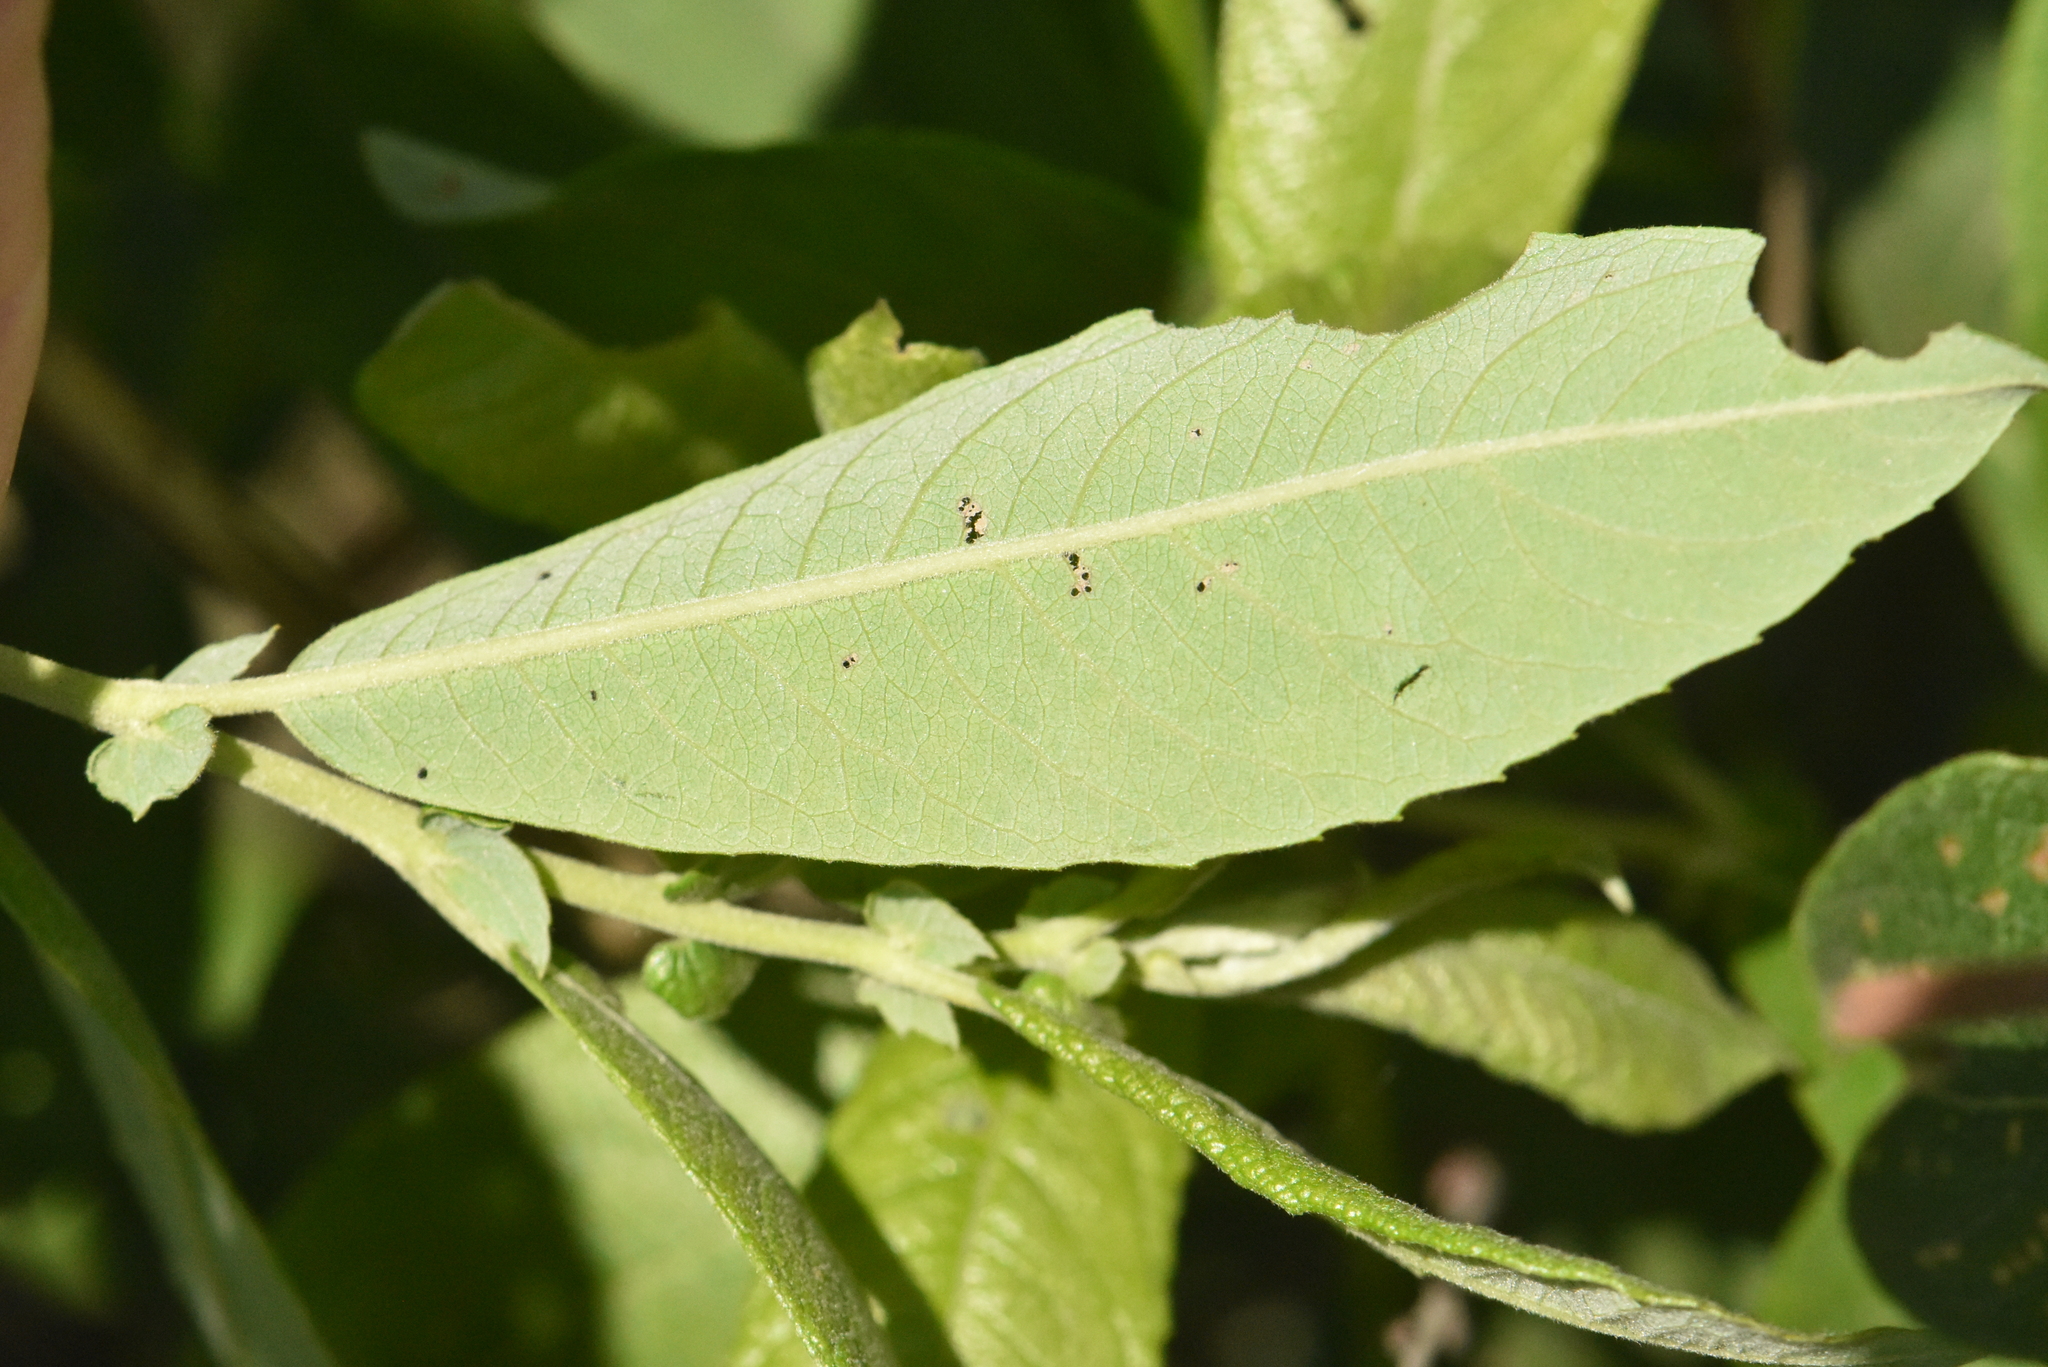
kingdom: Plantae
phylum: Tracheophyta
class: Magnoliopsida
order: Malpighiales
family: Salicaceae
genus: Salix
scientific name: Salix cinerea
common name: Common sallow
